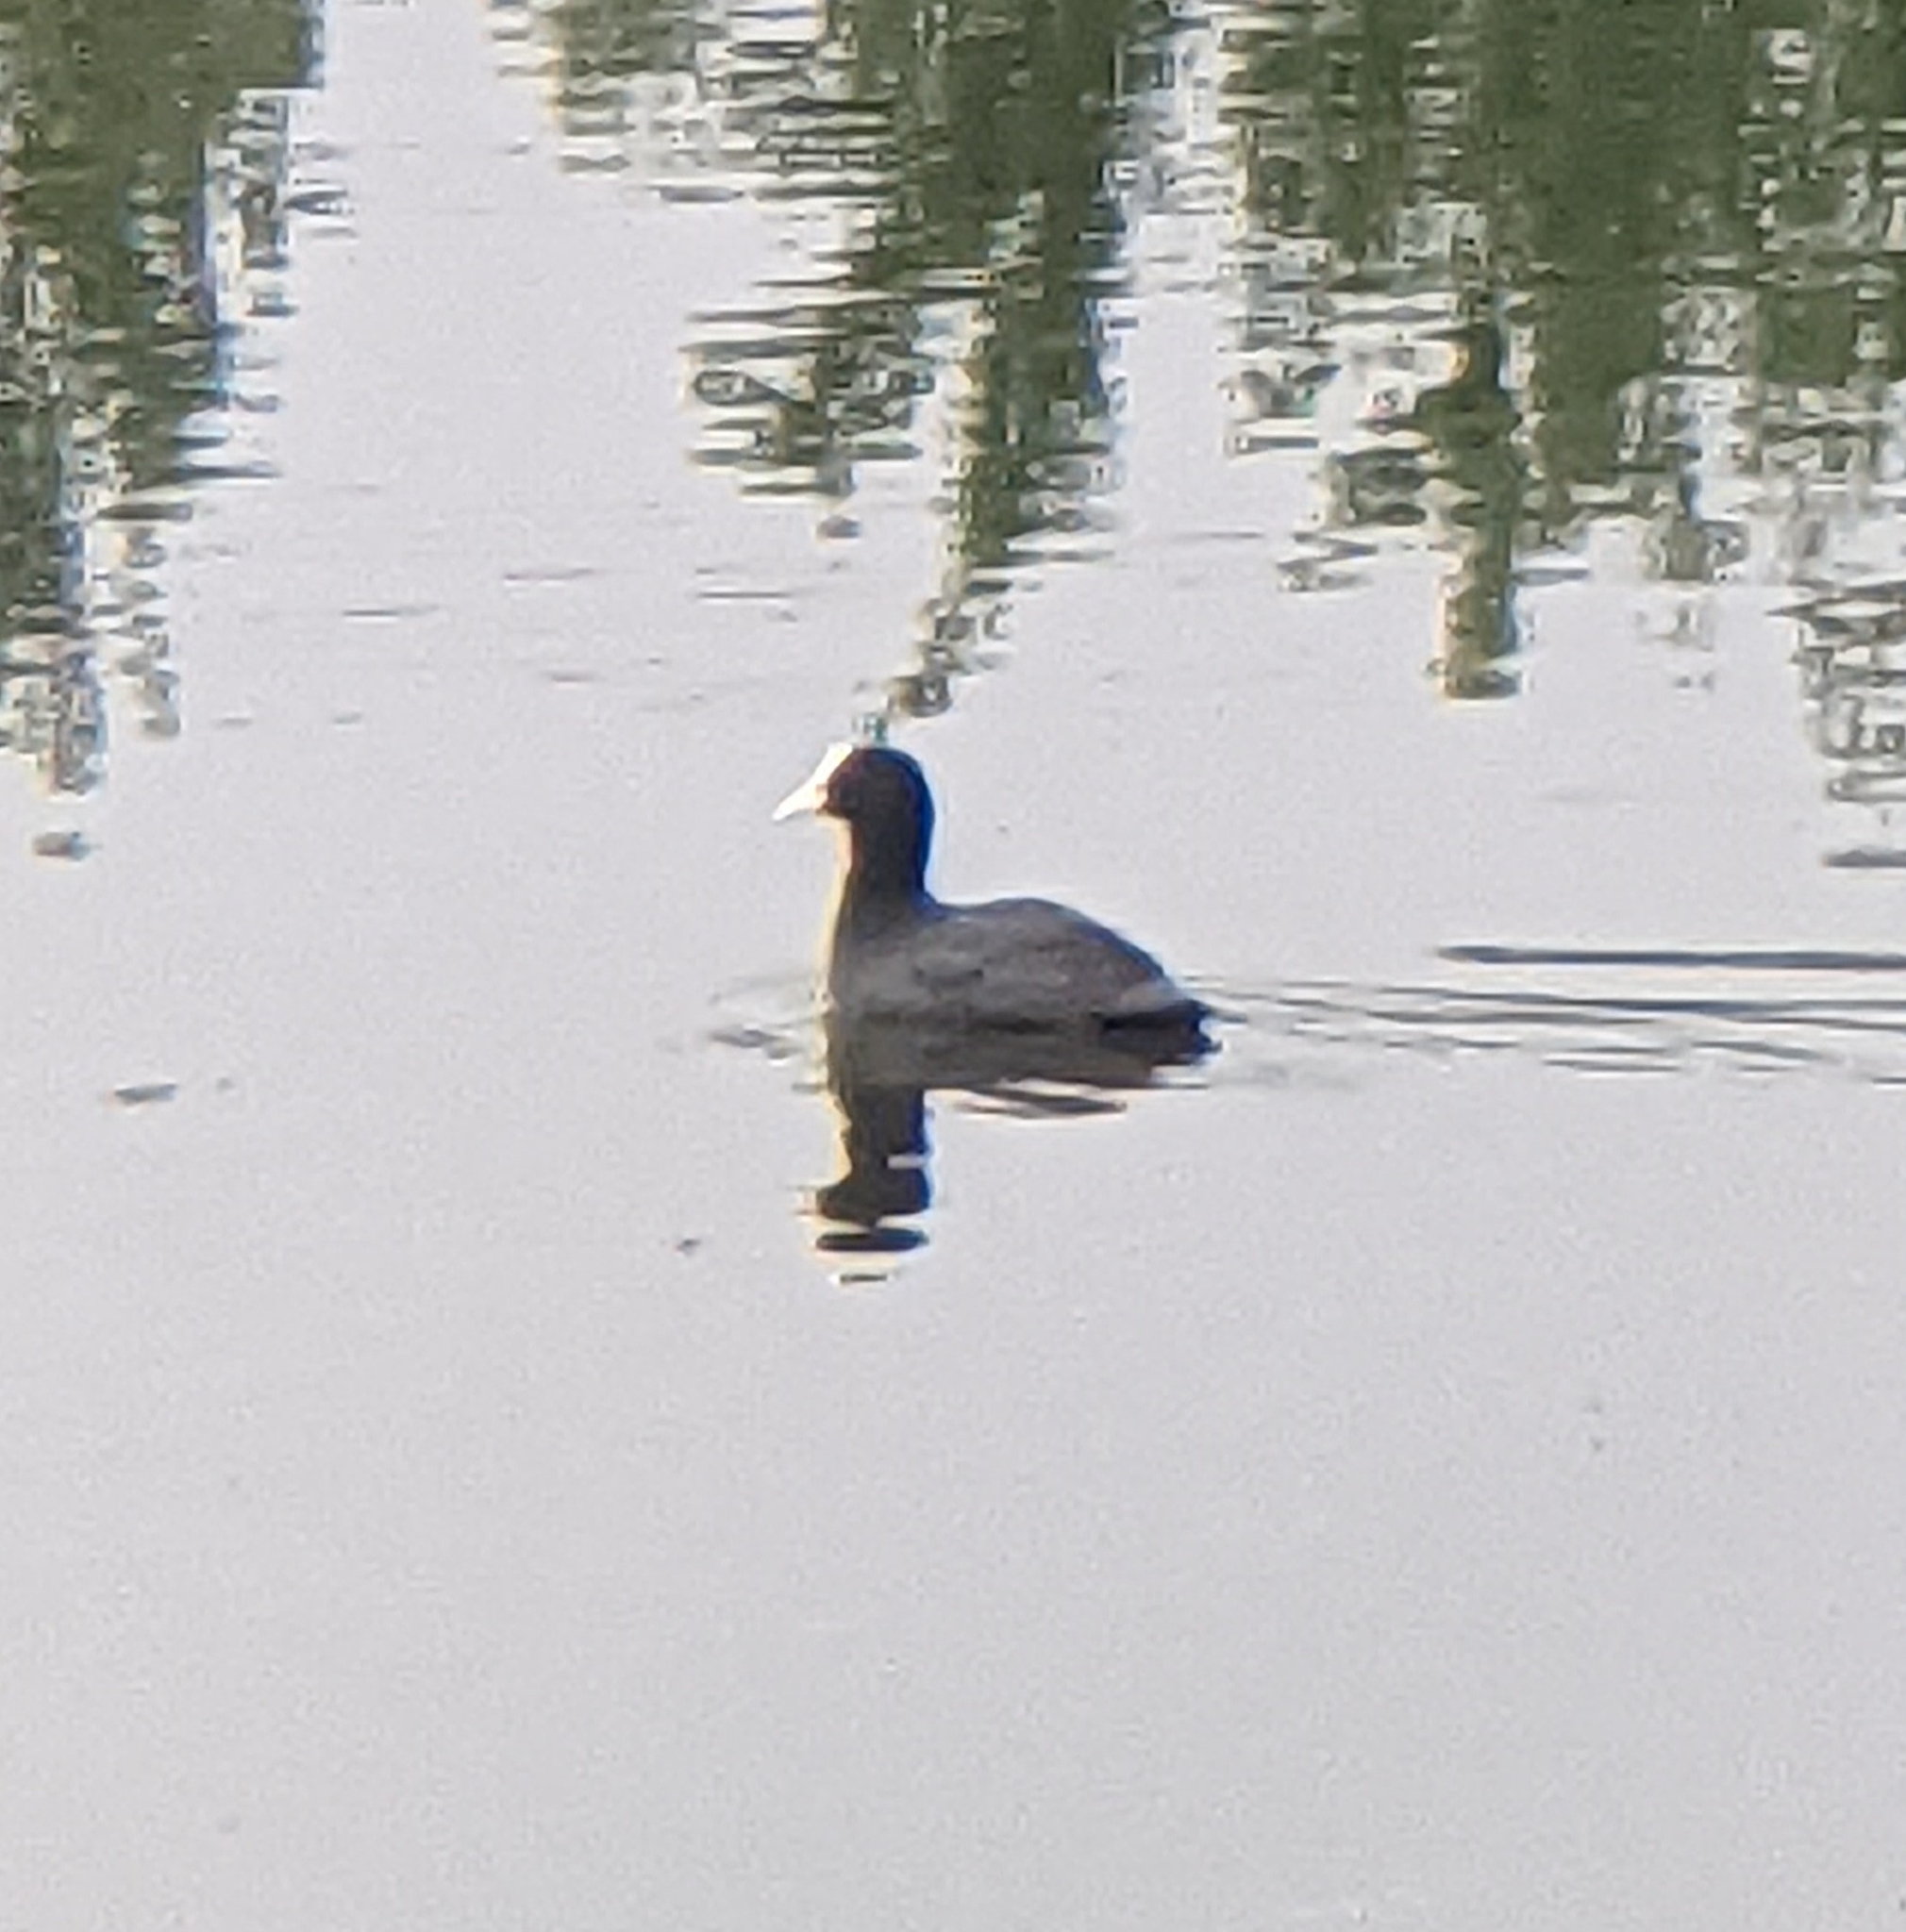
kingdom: Animalia
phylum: Chordata
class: Aves
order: Gruiformes
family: Rallidae
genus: Fulica
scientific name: Fulica atra
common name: Eurasian coot
